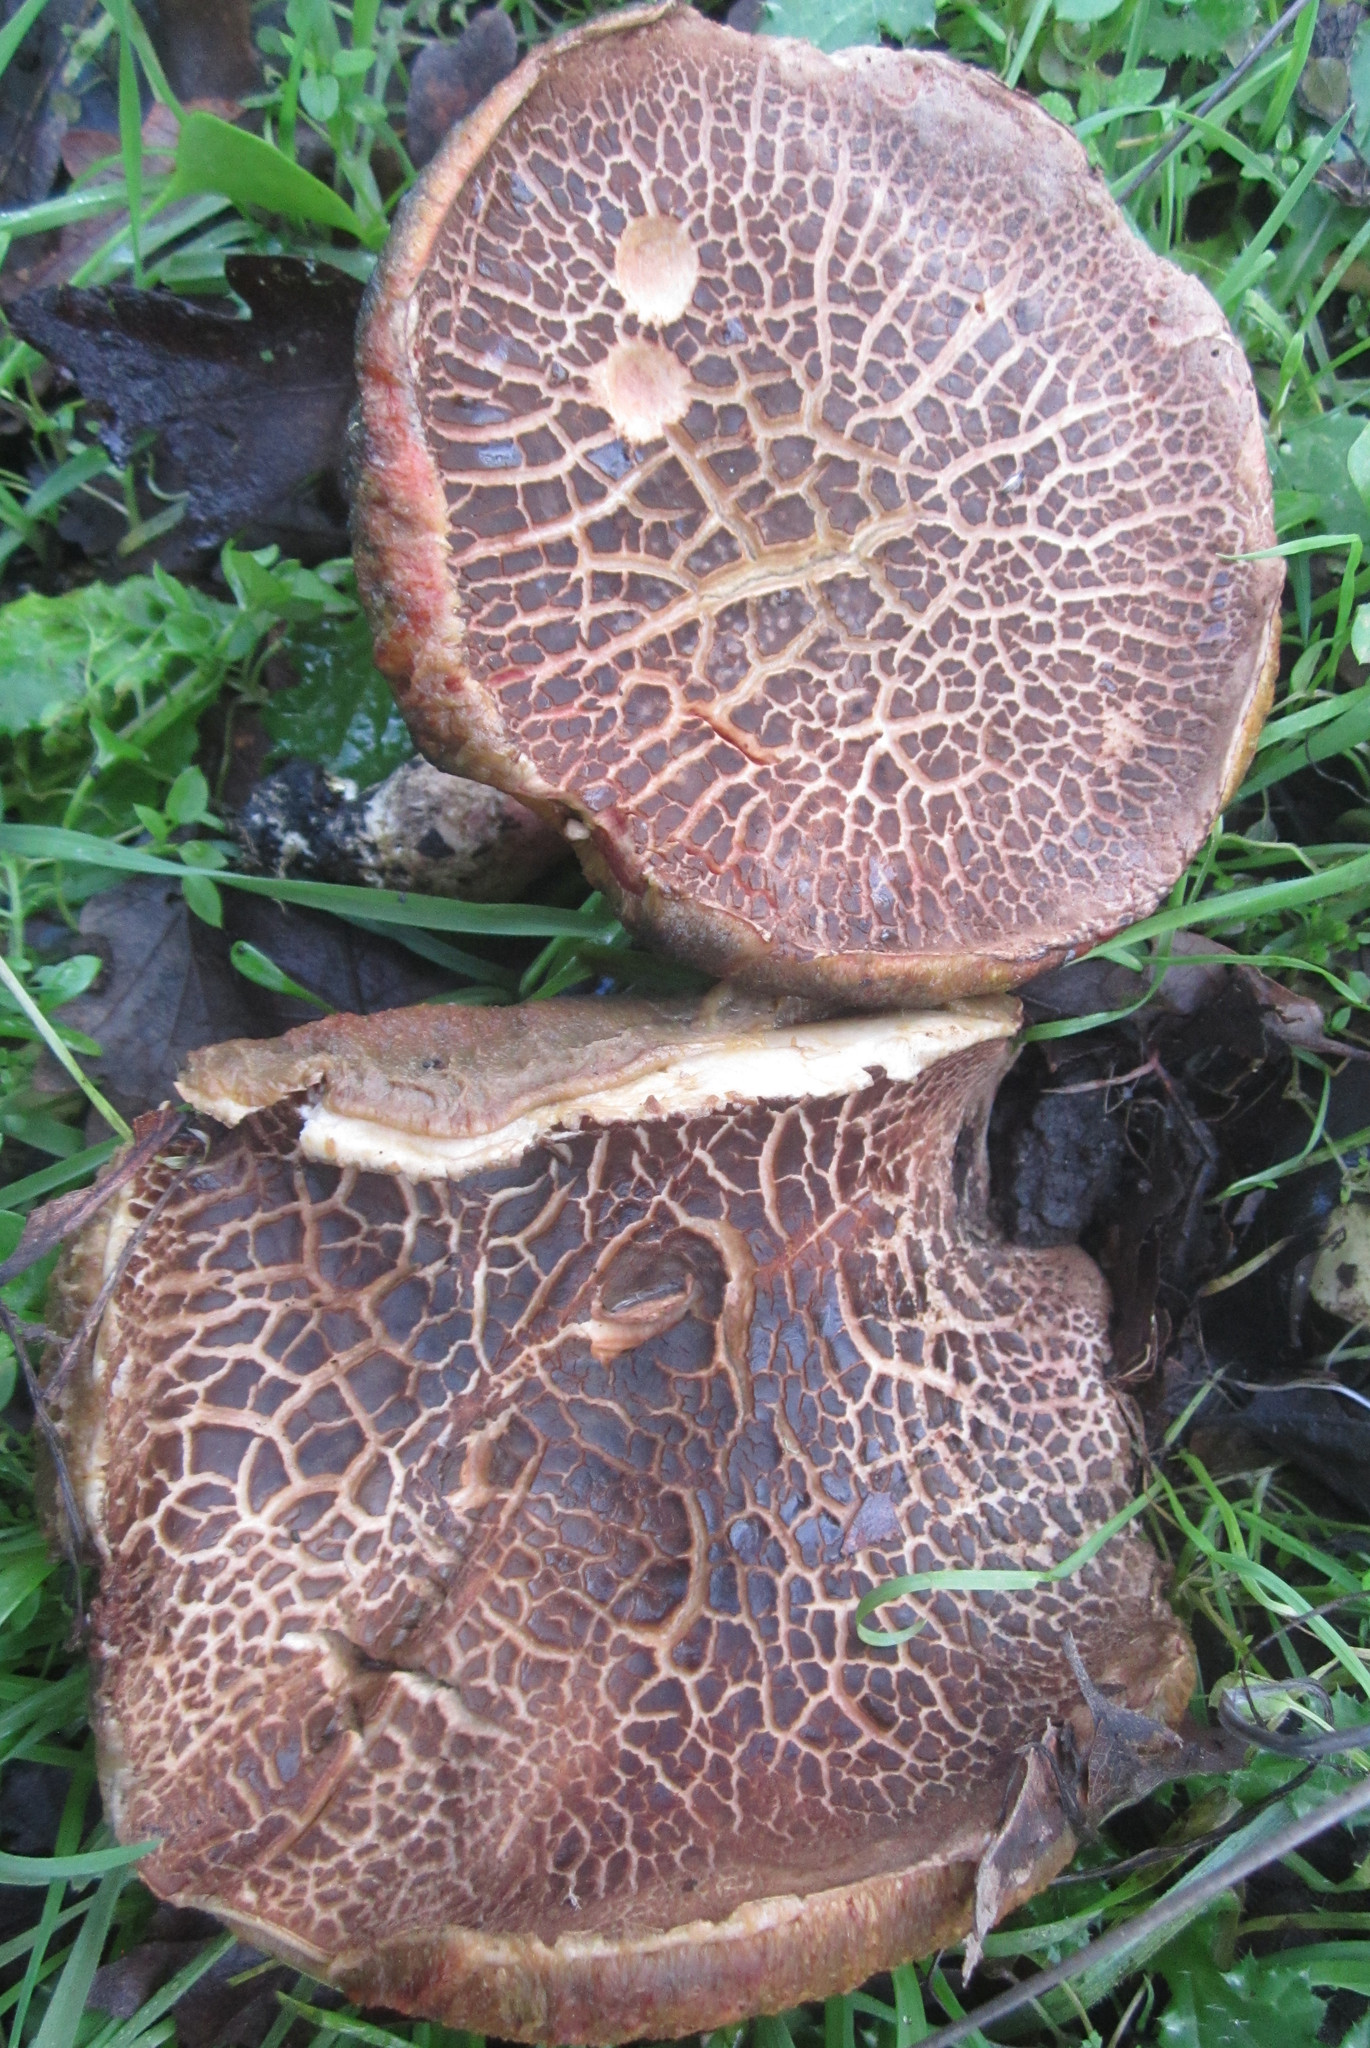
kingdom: Fungi
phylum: Basidiomycota
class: Agaricomycetes
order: Boletales
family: Boletaceae
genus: Xerocomellus
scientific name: Xerocomellus mendocinensis
